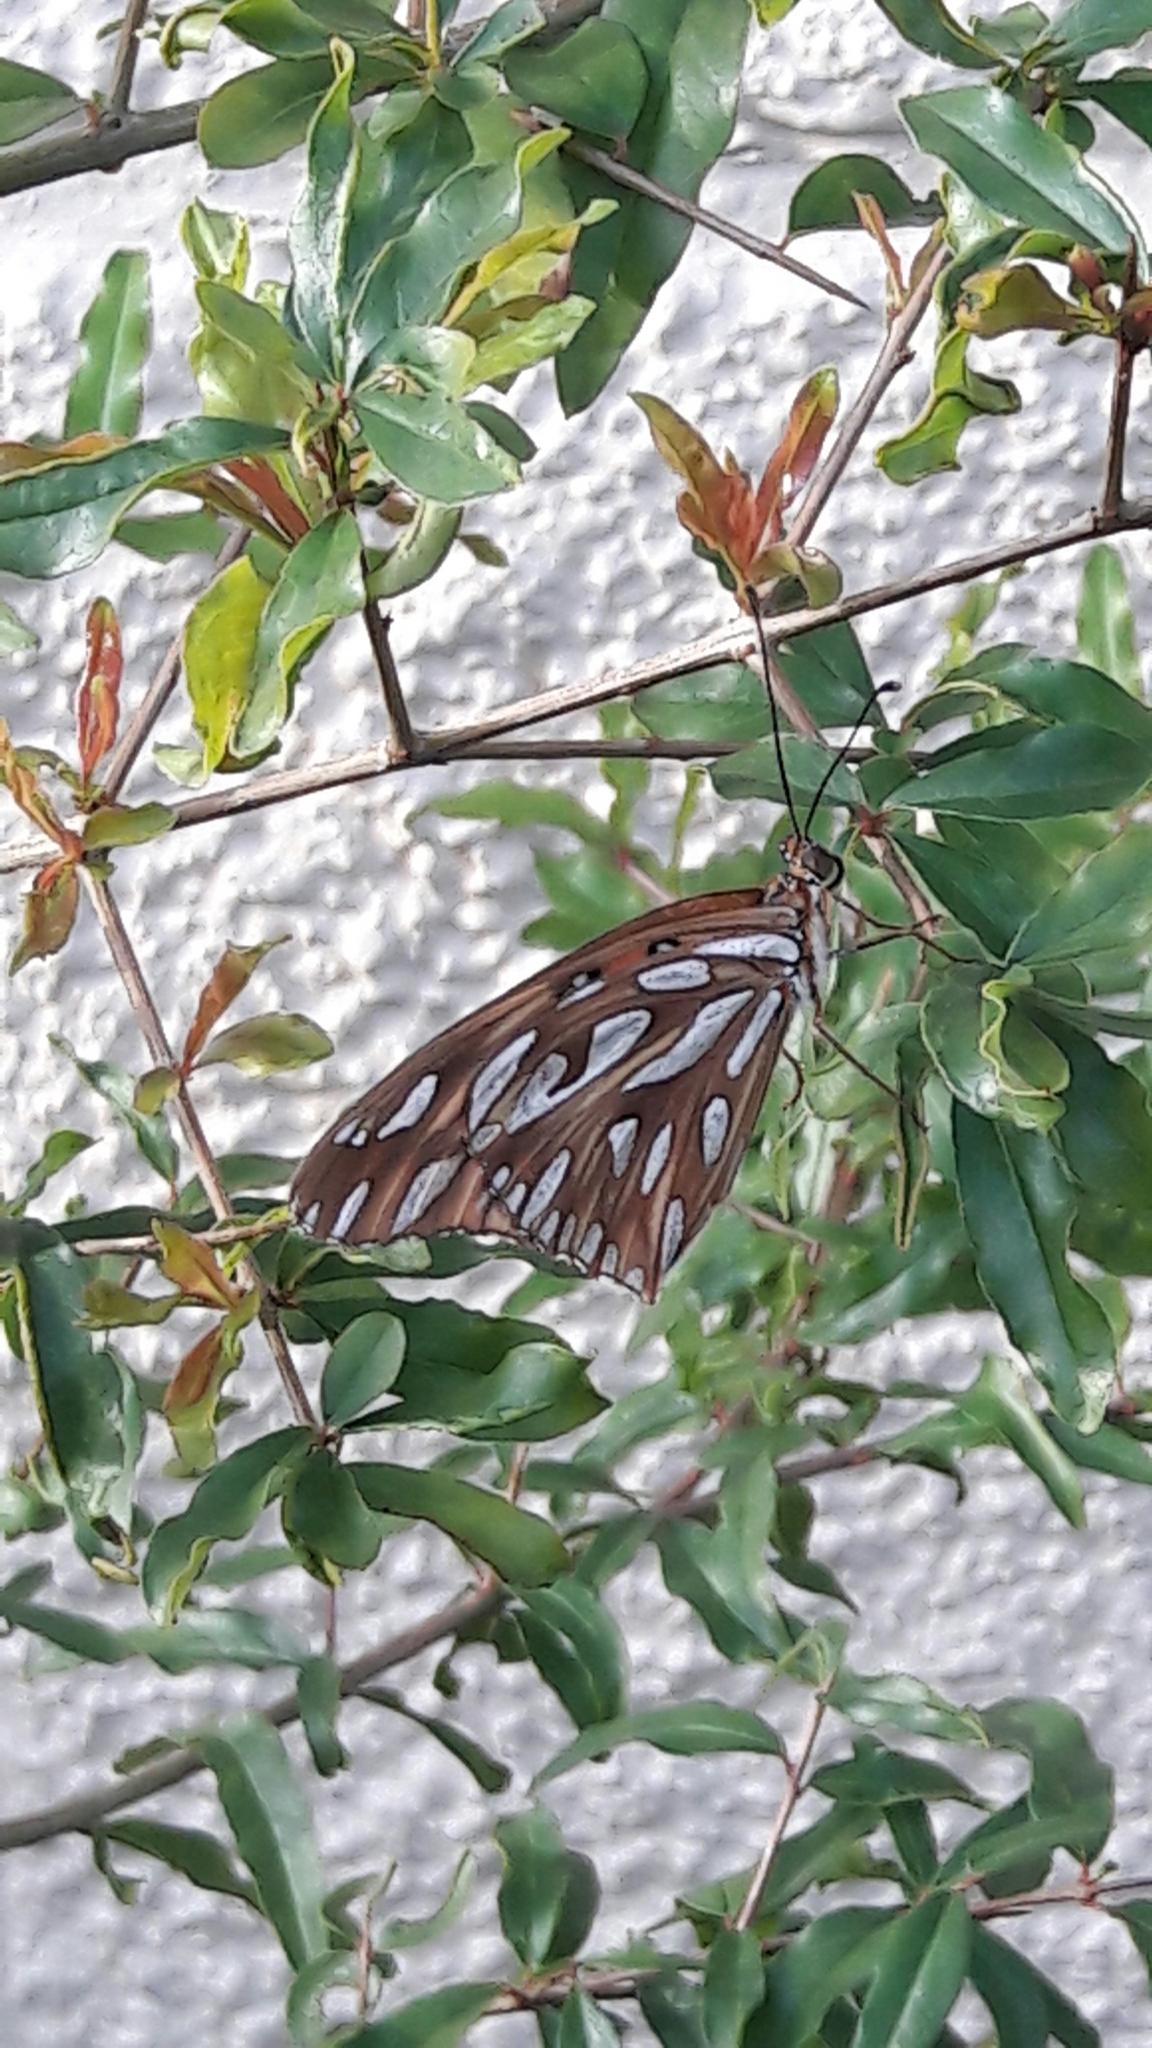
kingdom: Animalia
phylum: Arthropoda
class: Insecta
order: Lepidoptera
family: Nymphalidae
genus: Dione
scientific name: Dione vanillae
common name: Gulf fritillary
